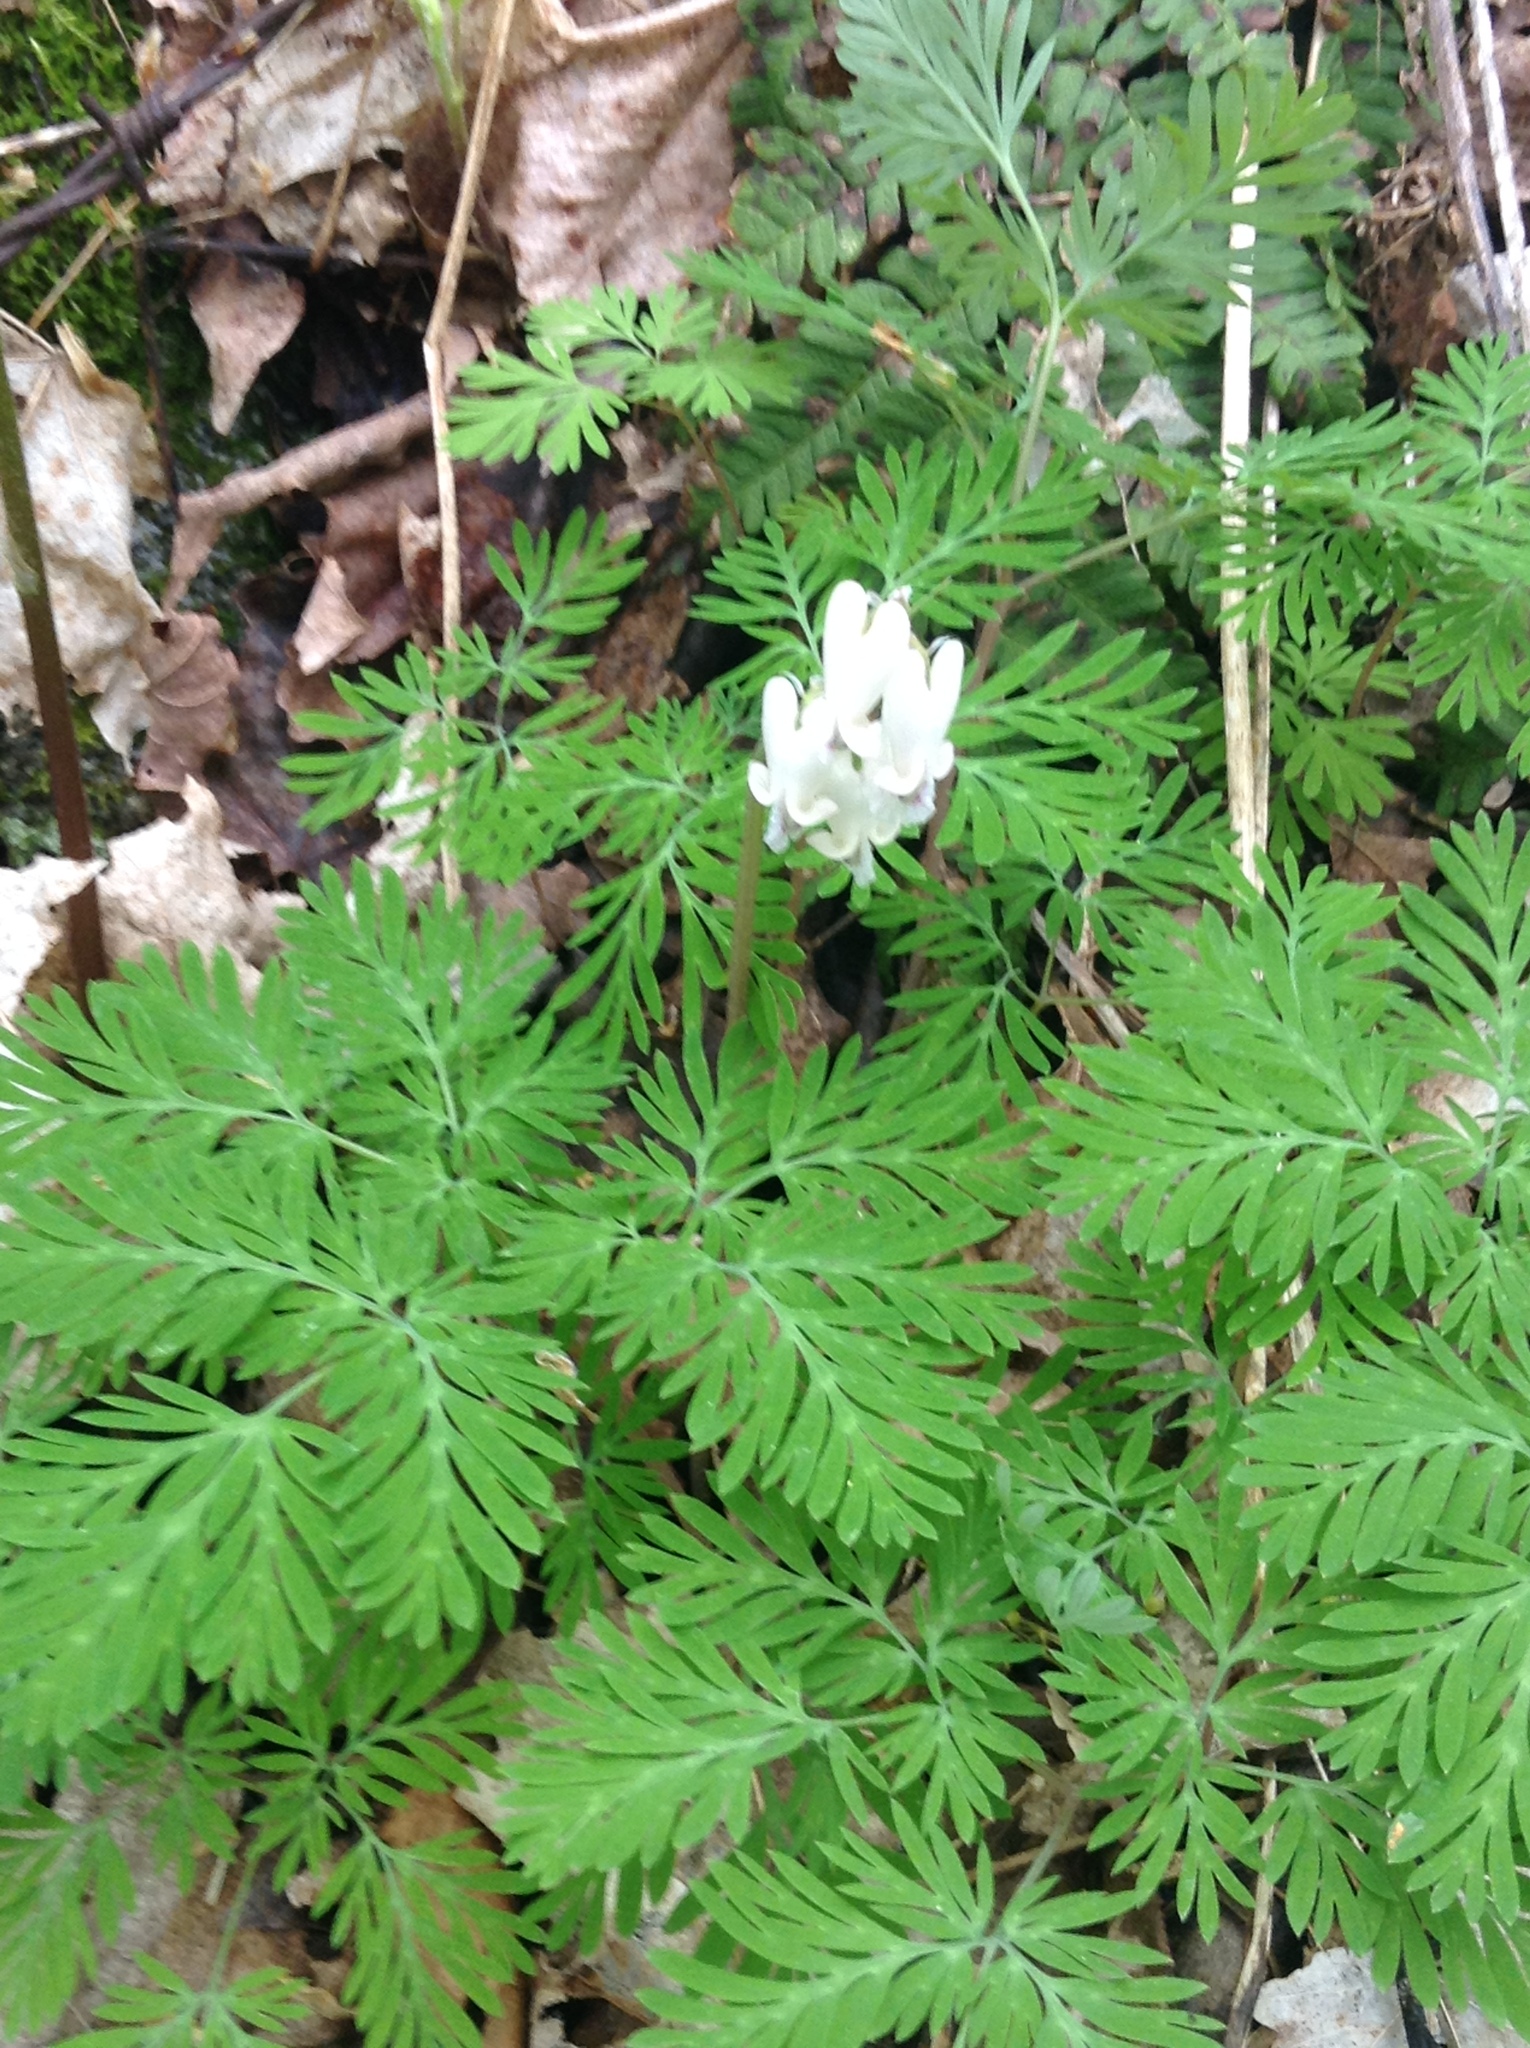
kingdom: Plantae
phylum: Tracheophyta
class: Magnoliopsida
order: Ranunculales
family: Papaveraceae
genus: Dicentra
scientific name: Dicentra canadensis
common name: Squirrel-corn
